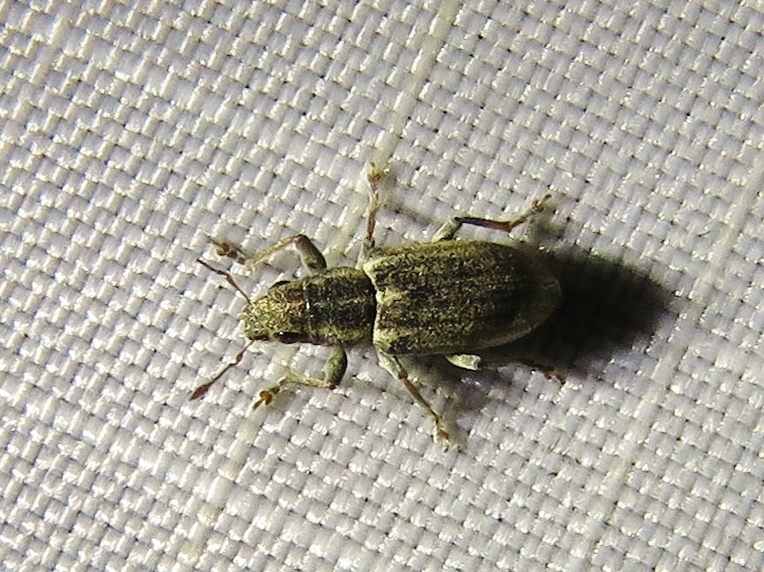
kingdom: Animalia
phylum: Arthropoda
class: Insecta
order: Coleoptera
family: Curculionidae
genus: Sitona
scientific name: Sitona lineatus
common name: Weevil
